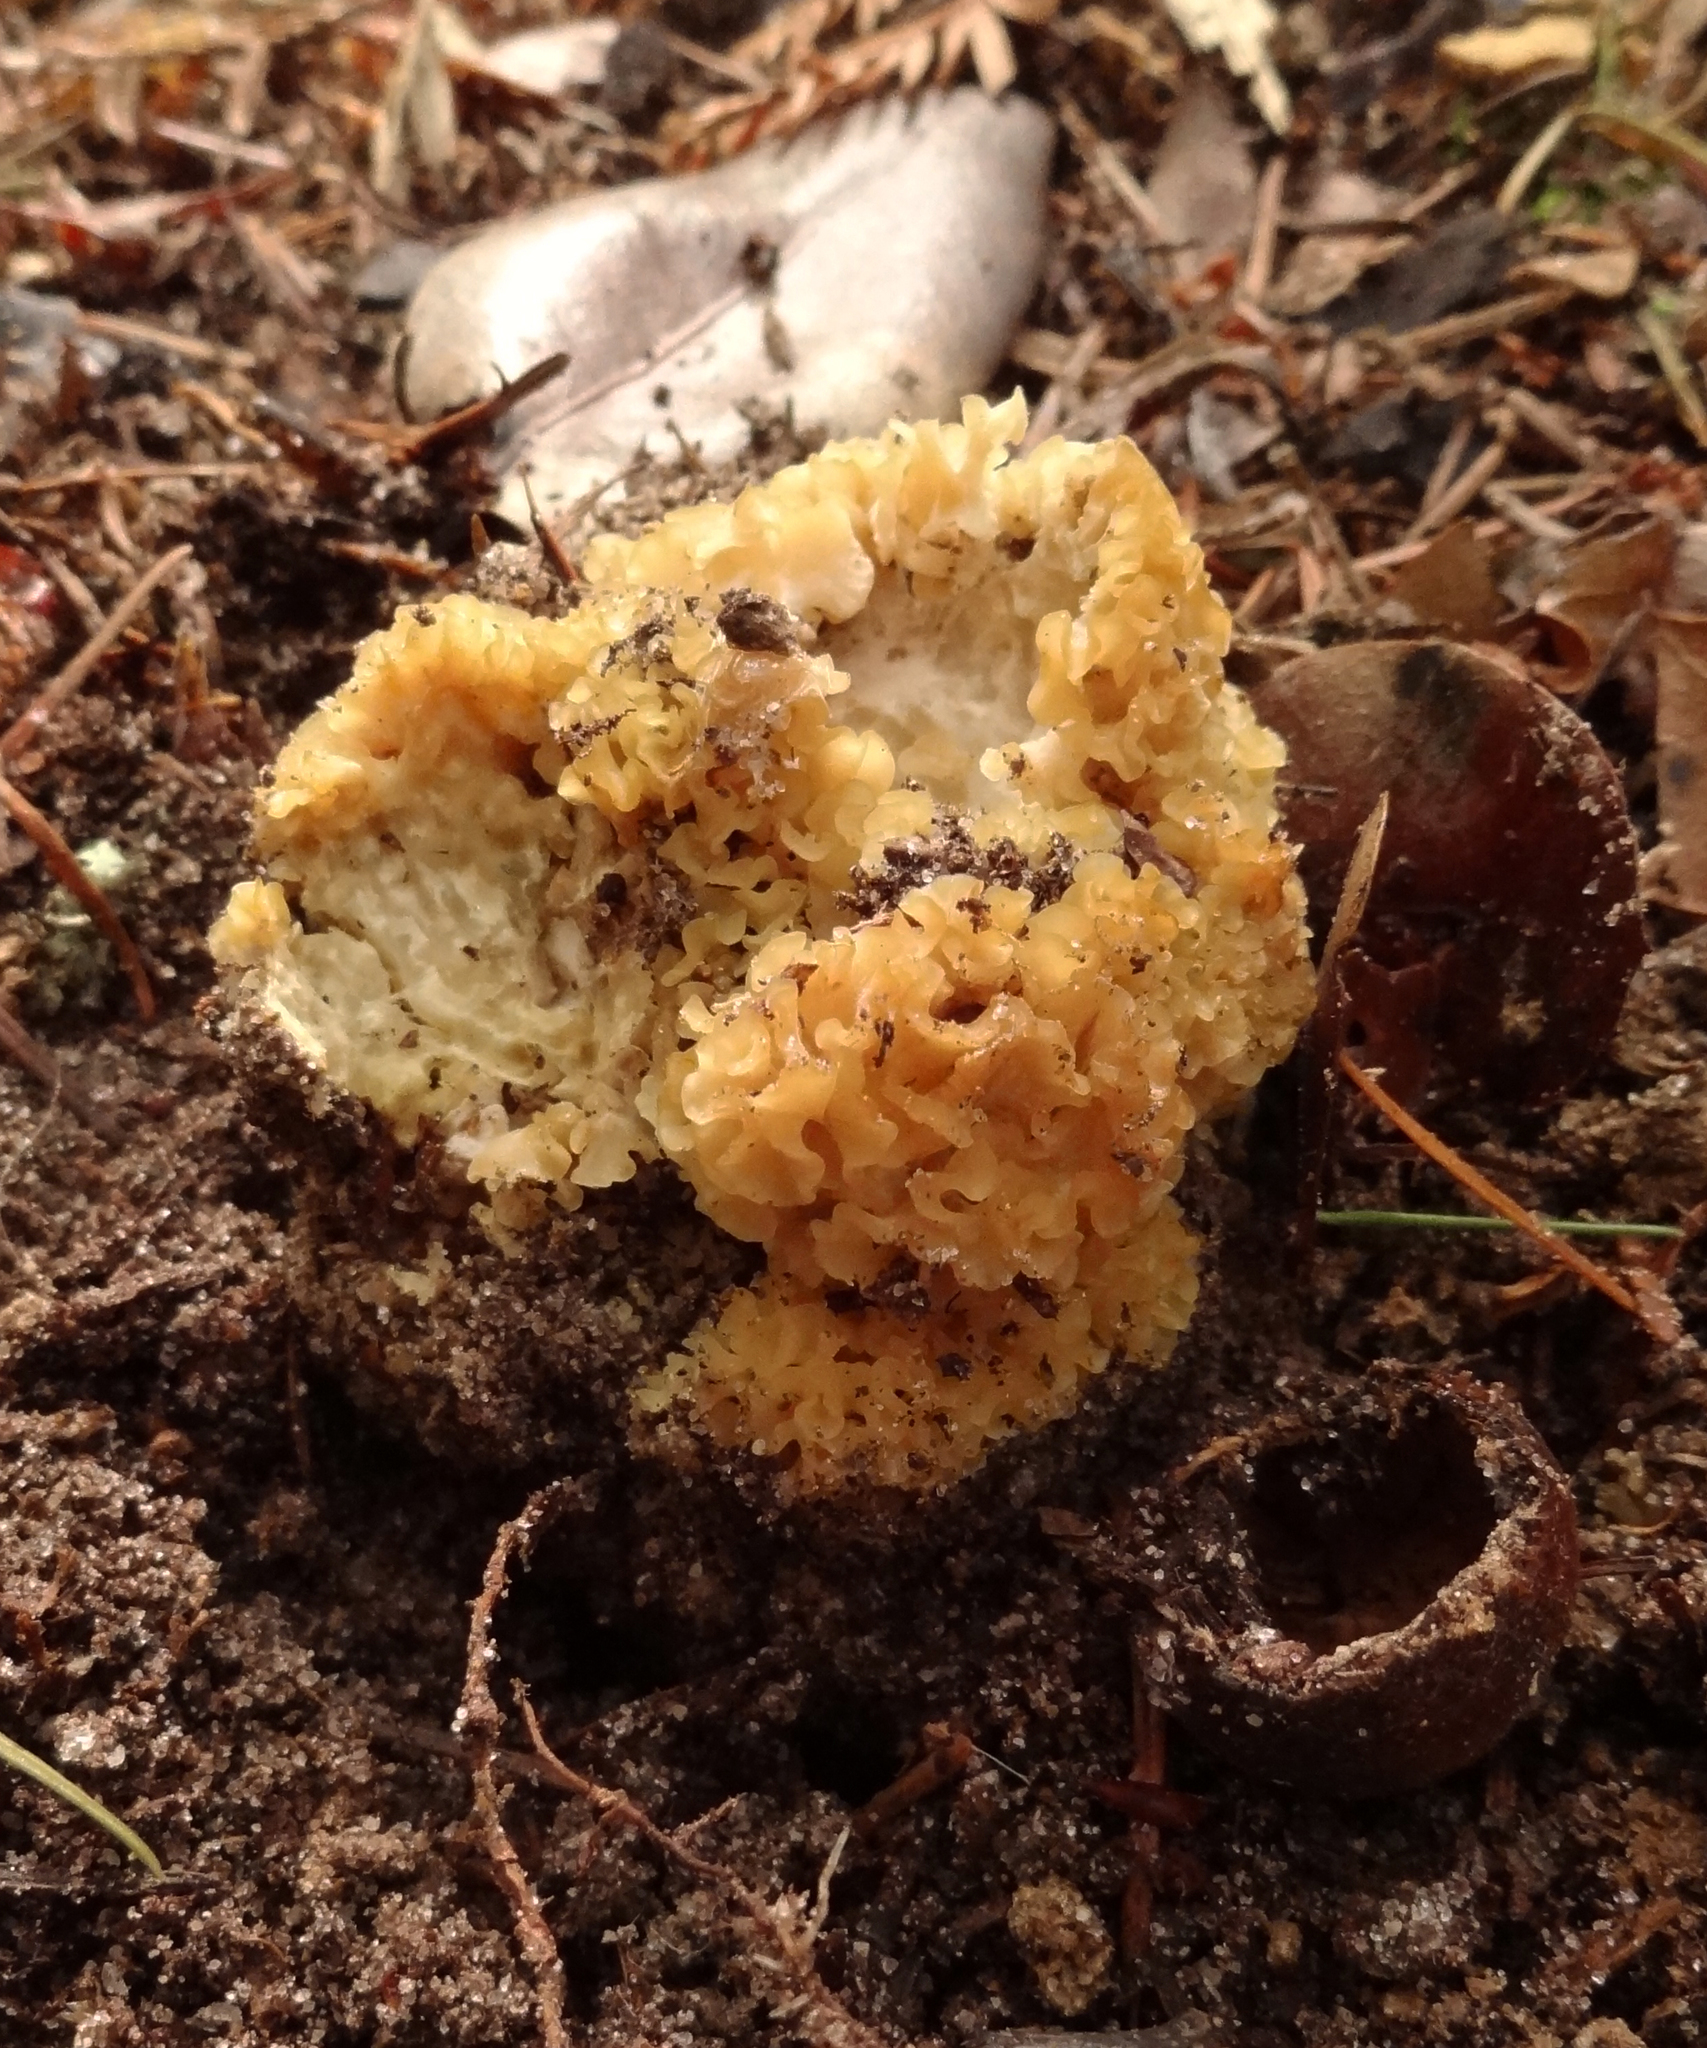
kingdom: Fungi
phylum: Basidiomycota
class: Agaricomycetes
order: Polyporales
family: Sparassidaceae
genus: Sparassis
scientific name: Sparassis radicata
